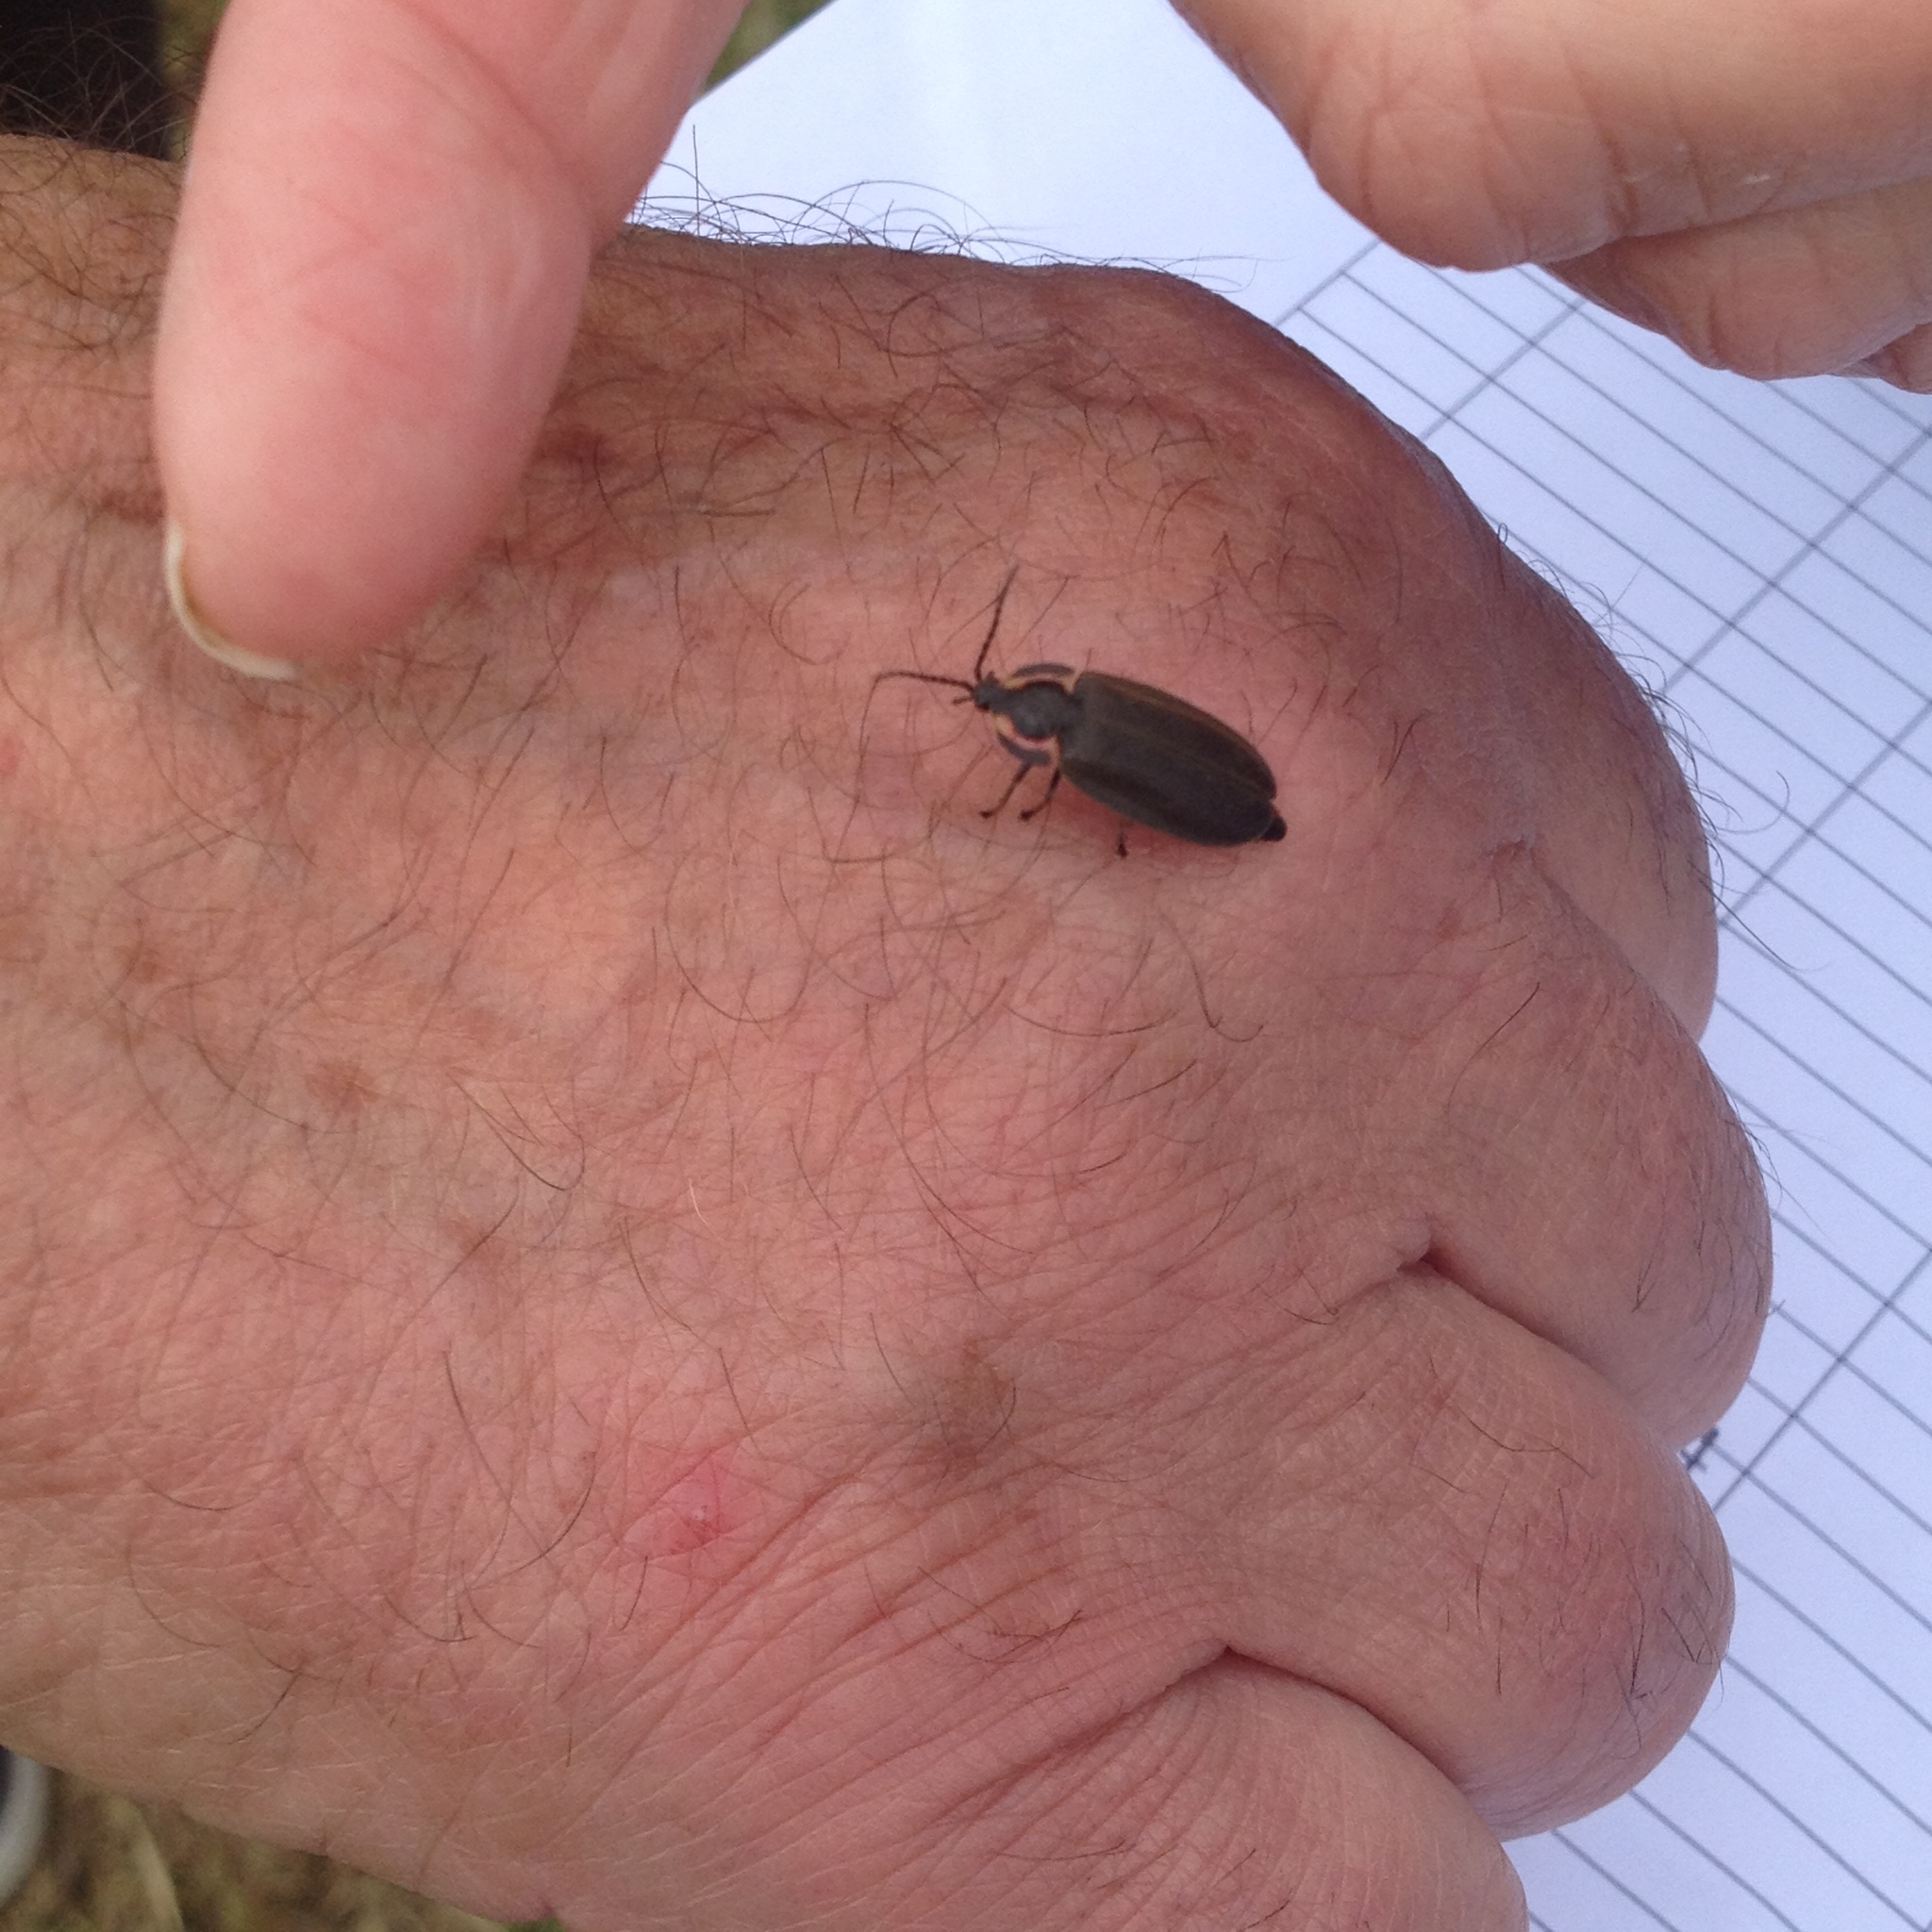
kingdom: Animalia
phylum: Arthropoda
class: Insecta
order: Coleoptera
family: Lampyridae
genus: Photinus
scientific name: Photinus corrusca
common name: Winter firefly
